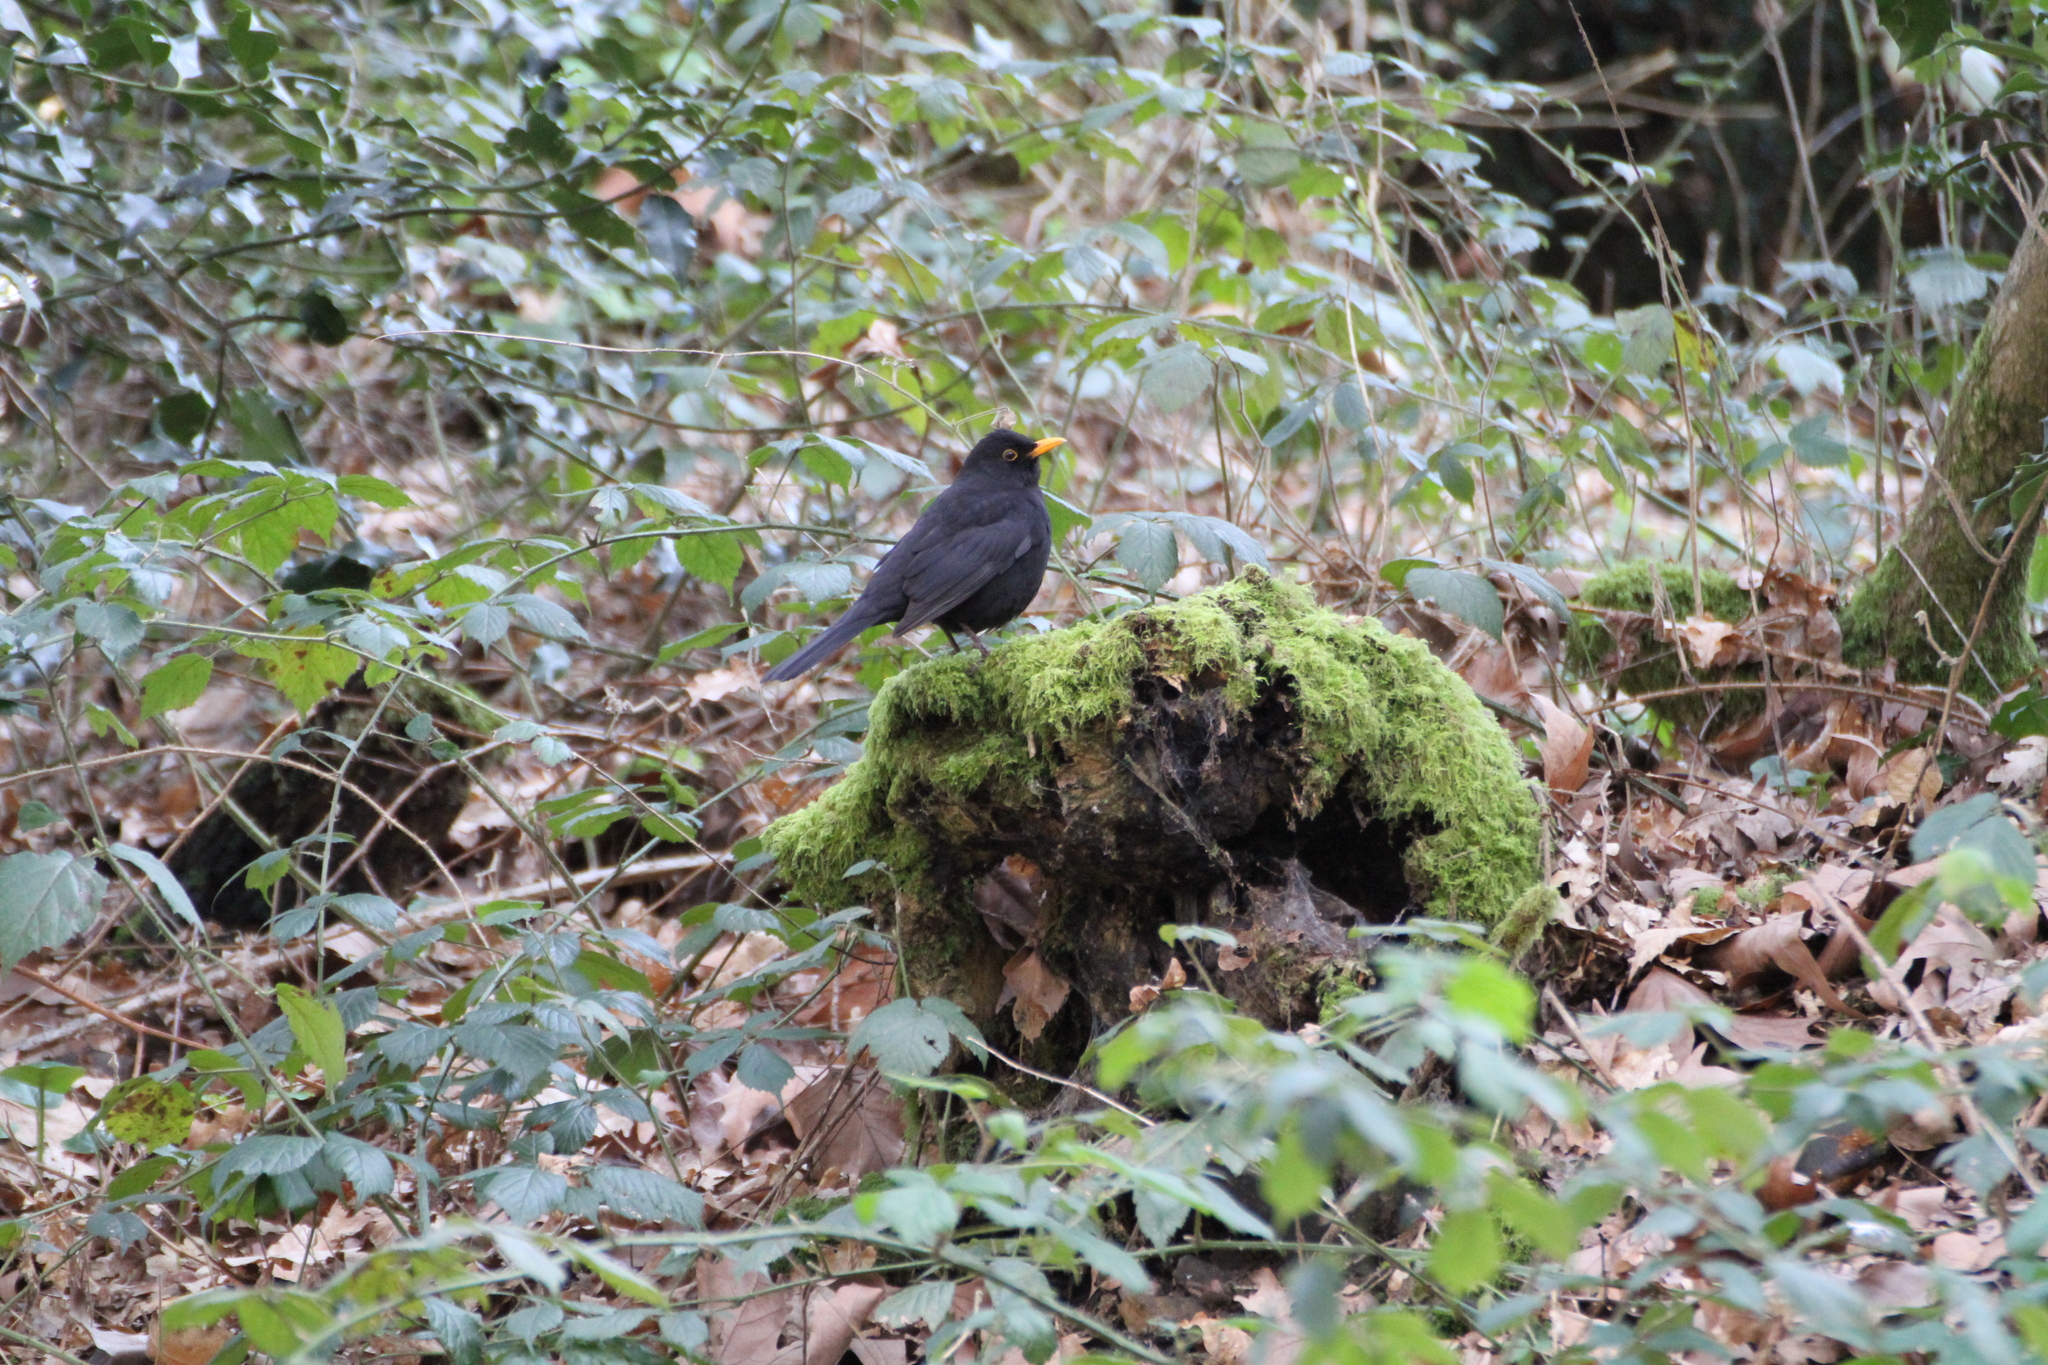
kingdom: Animalia
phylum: Chordata
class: Aves
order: Passeriformes
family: Turdidae
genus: Turdus
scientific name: Turdus merula
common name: Common blackbird
